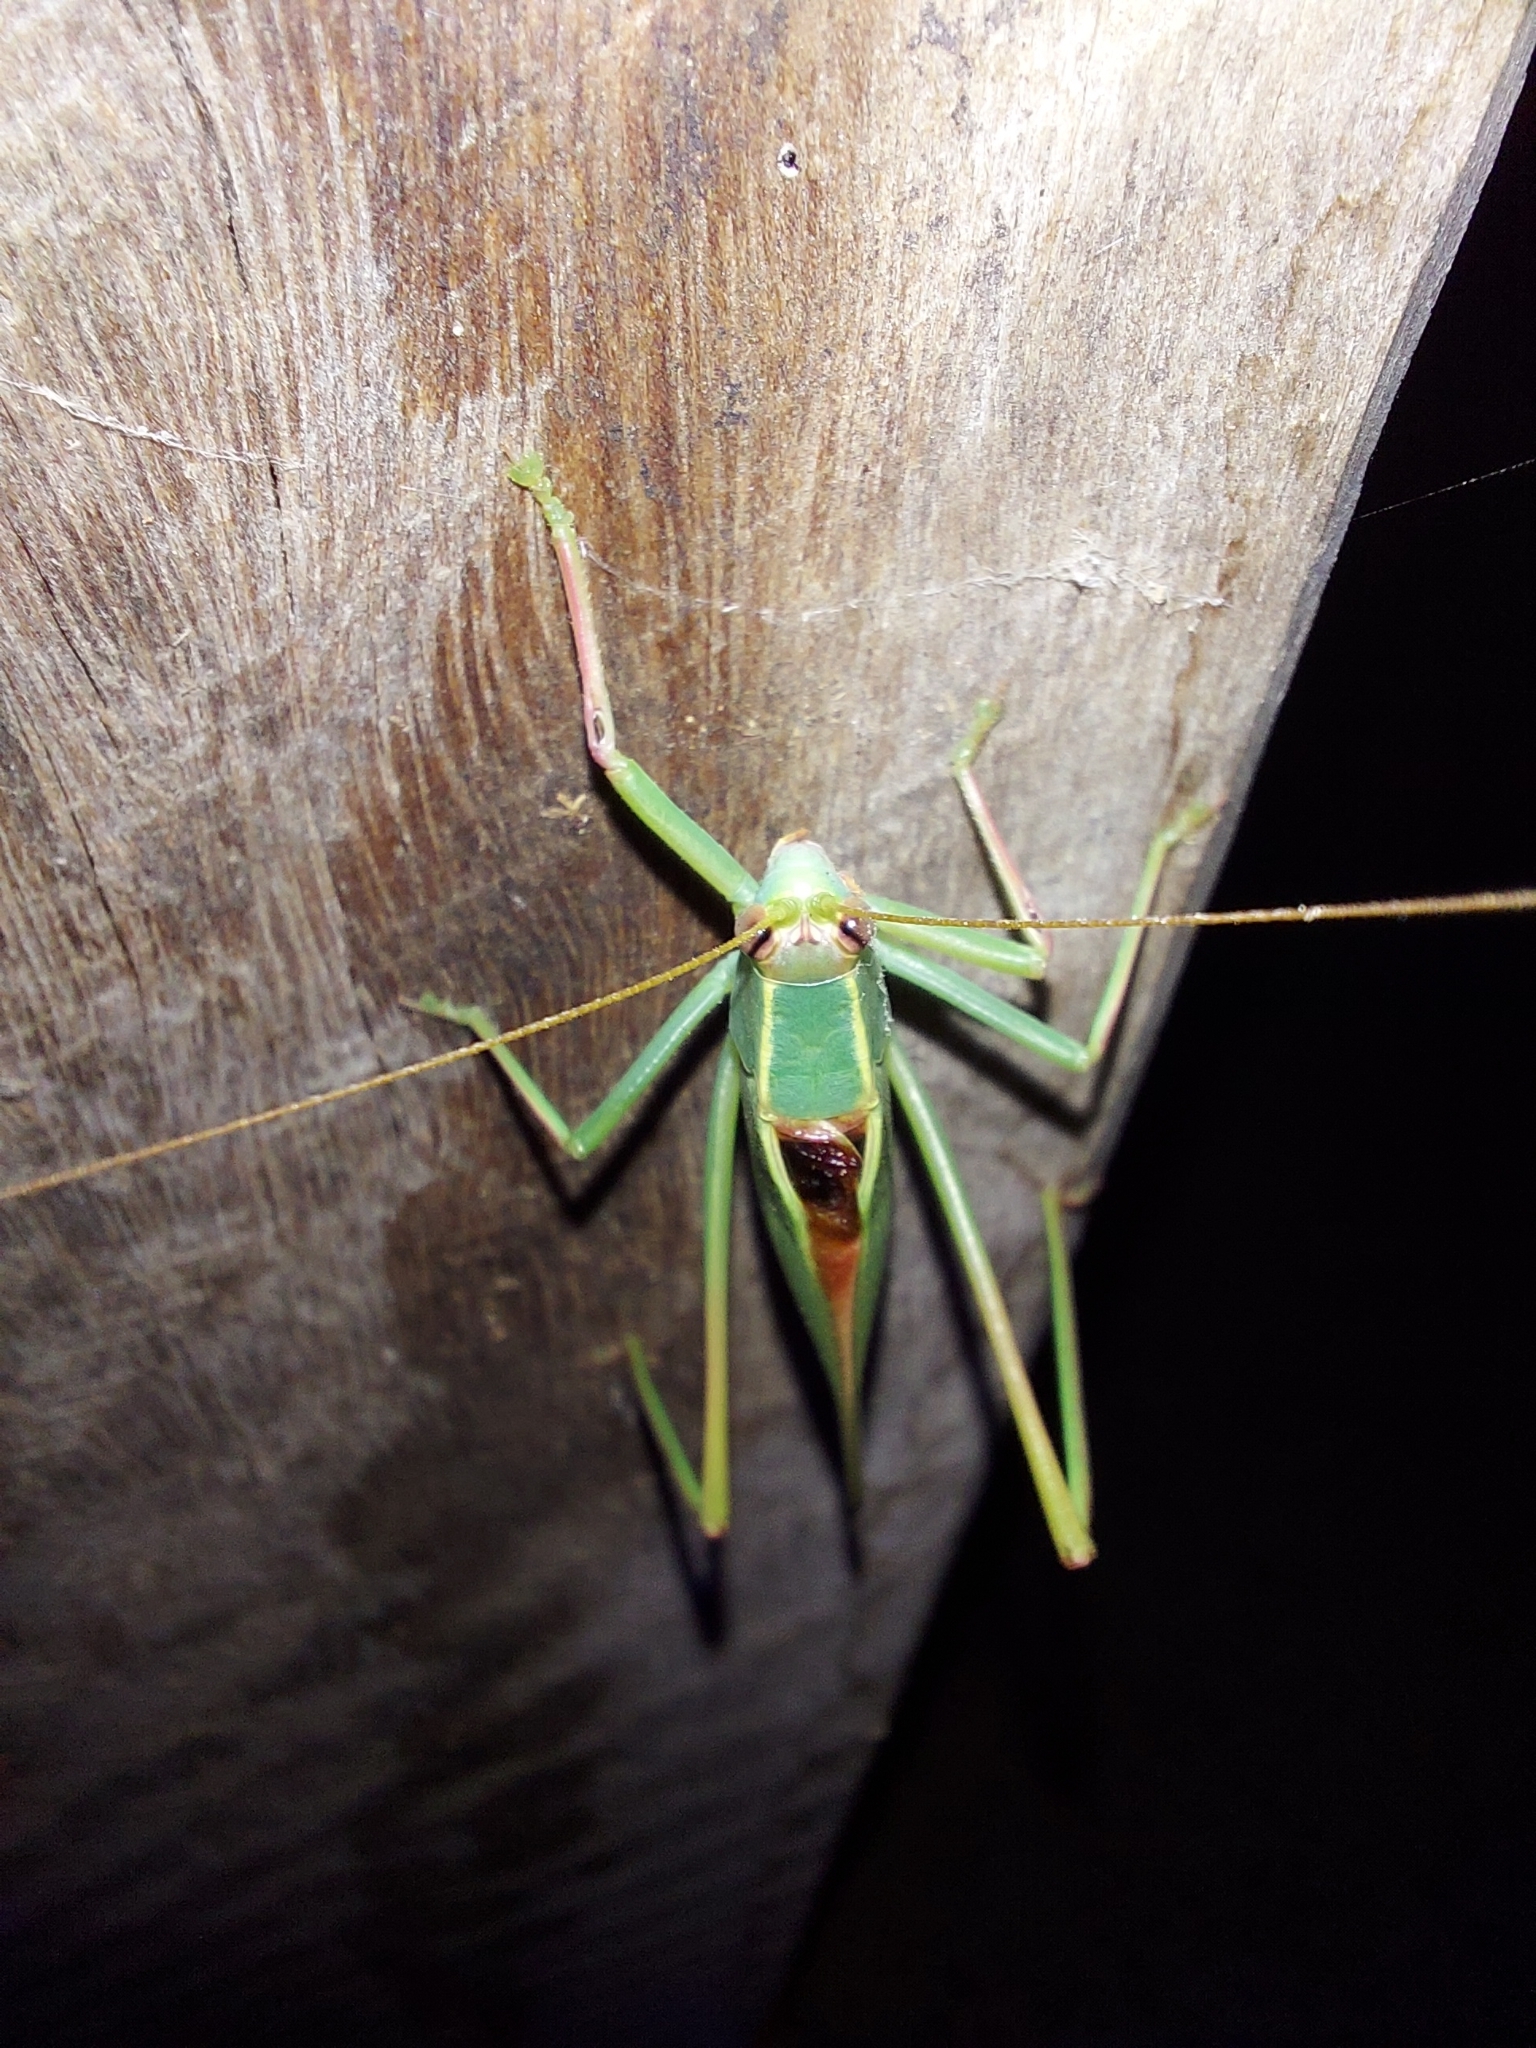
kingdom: Animalia
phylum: Arthropoda
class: Insecta
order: Orthoptera
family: Tettigoniidae
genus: Torbia
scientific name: Torbia viridissima
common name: Non-predaceous gum leaf katydid
